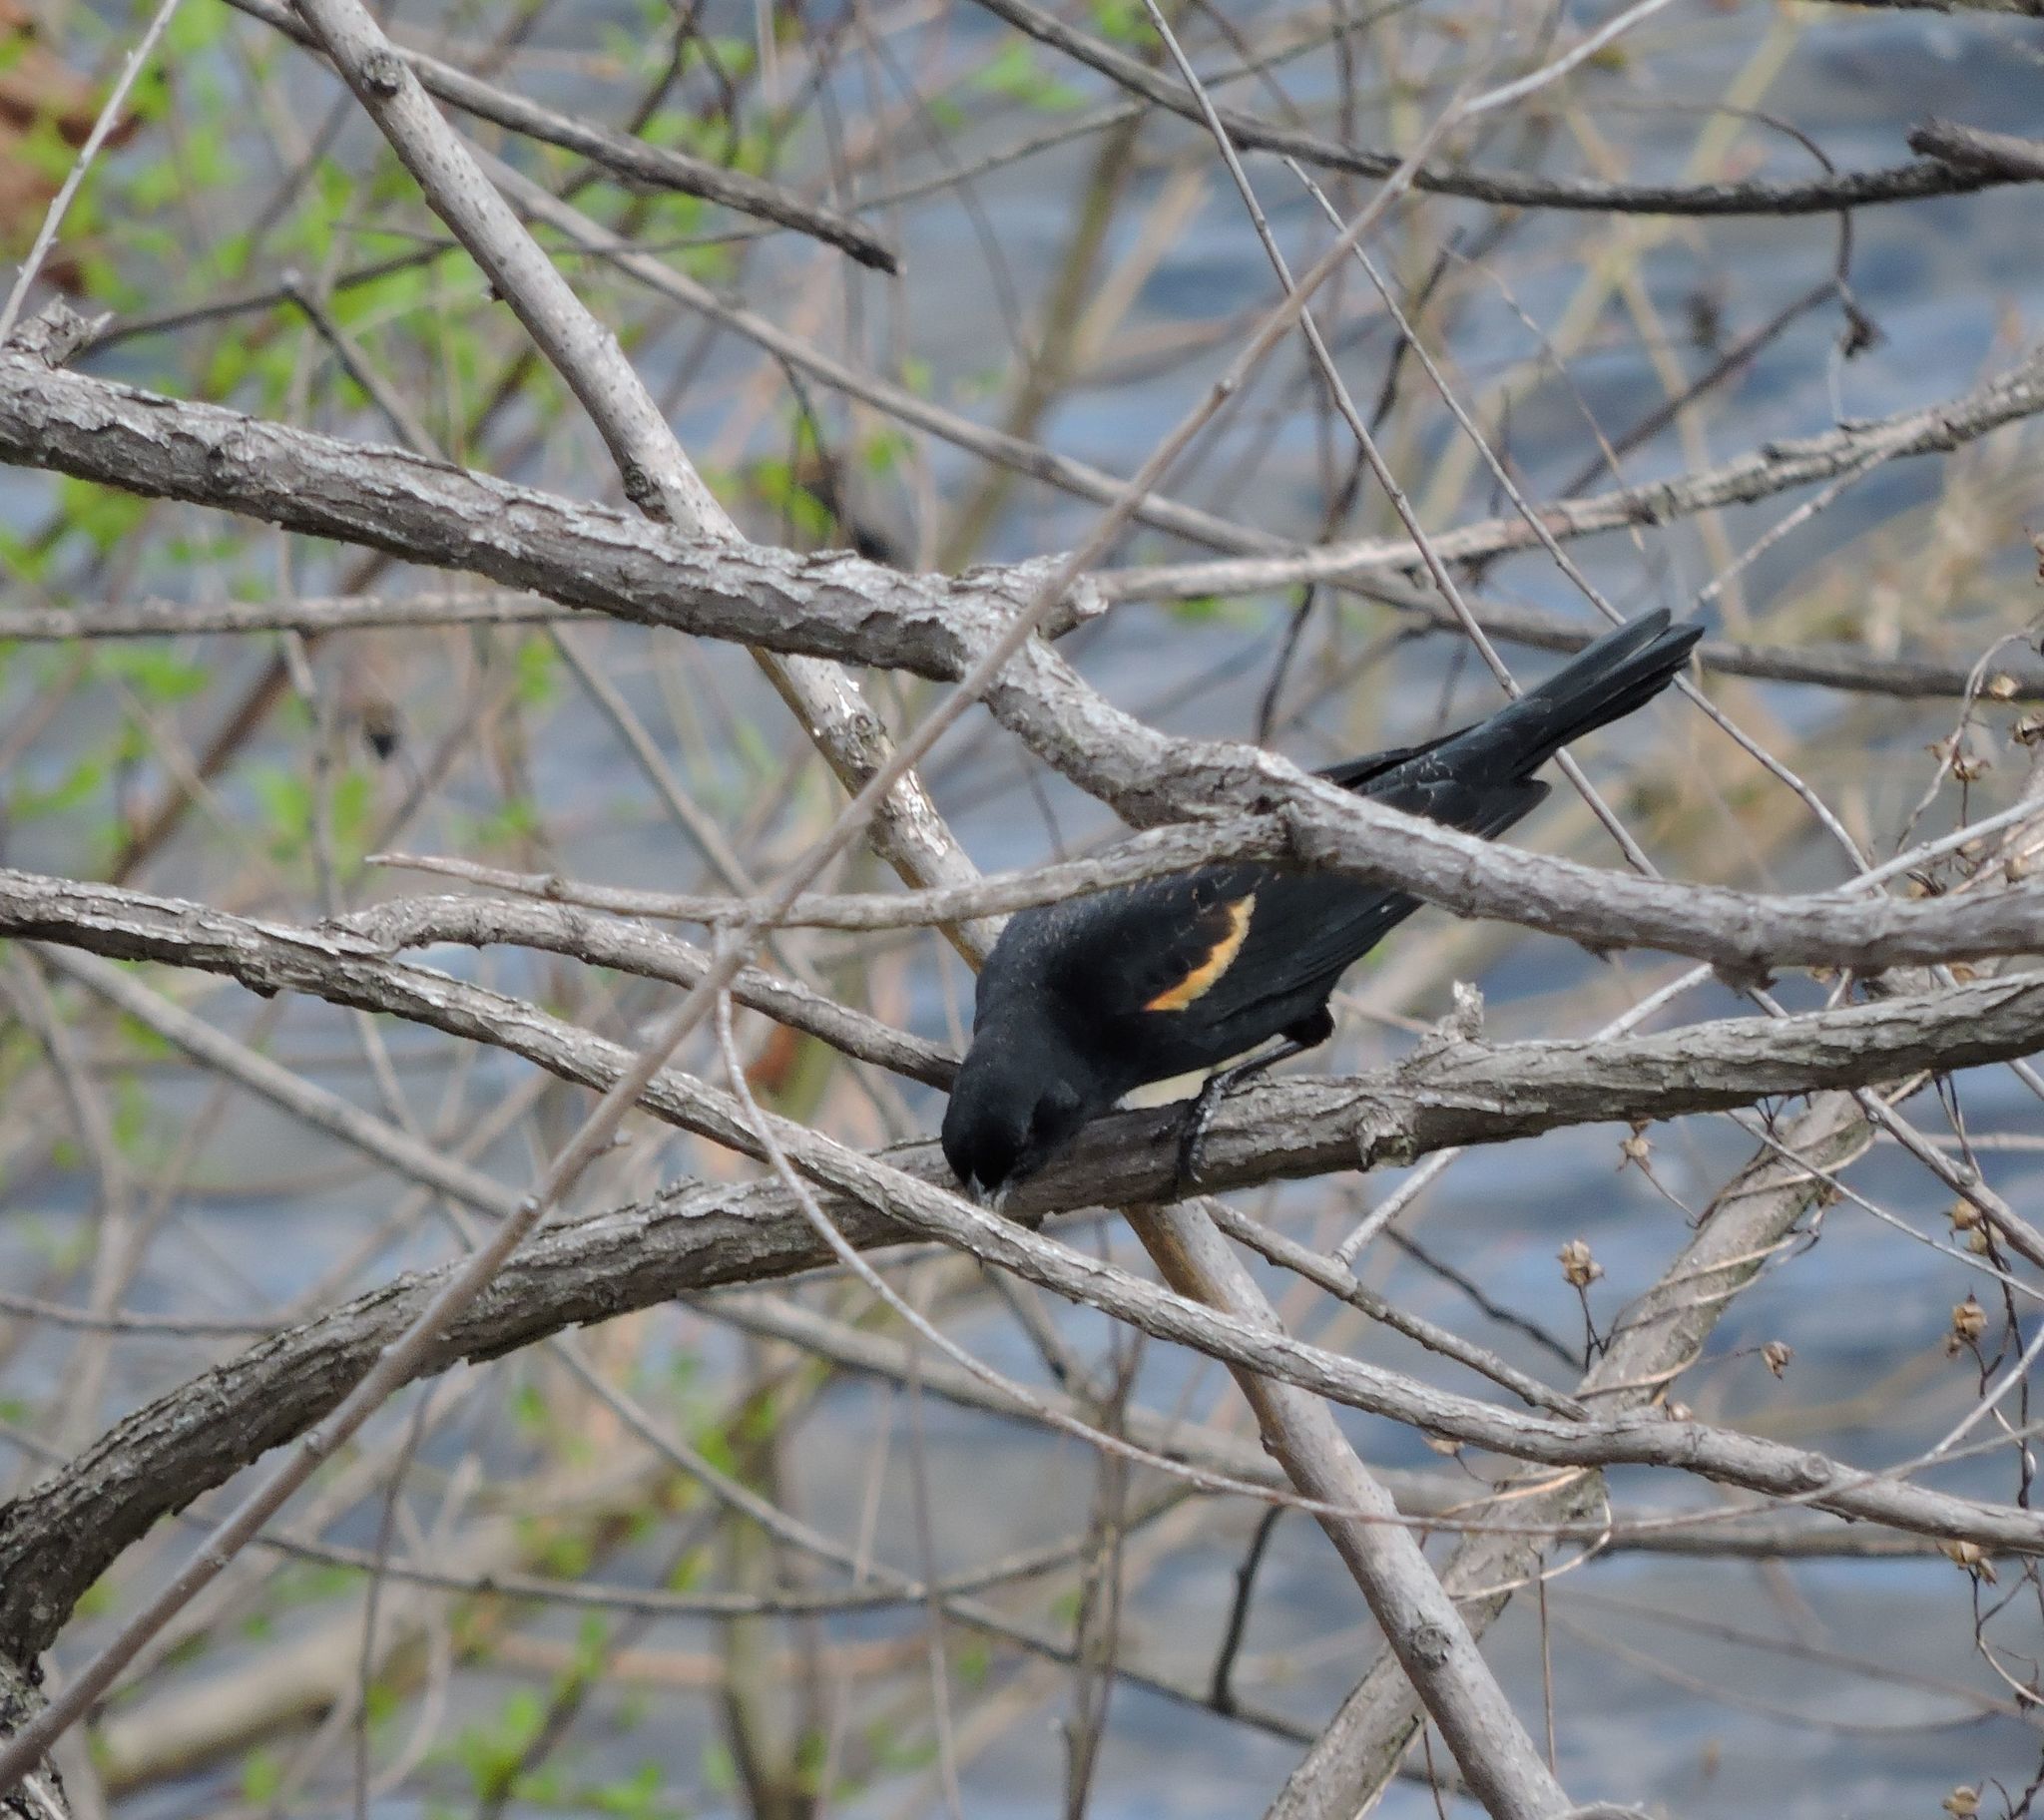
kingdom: Animalia
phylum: Chordata
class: Aves
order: Passeriformes
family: Icteridae
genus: Agelaius
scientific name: Agelaius phoeniceus
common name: Red-winged blackbird
